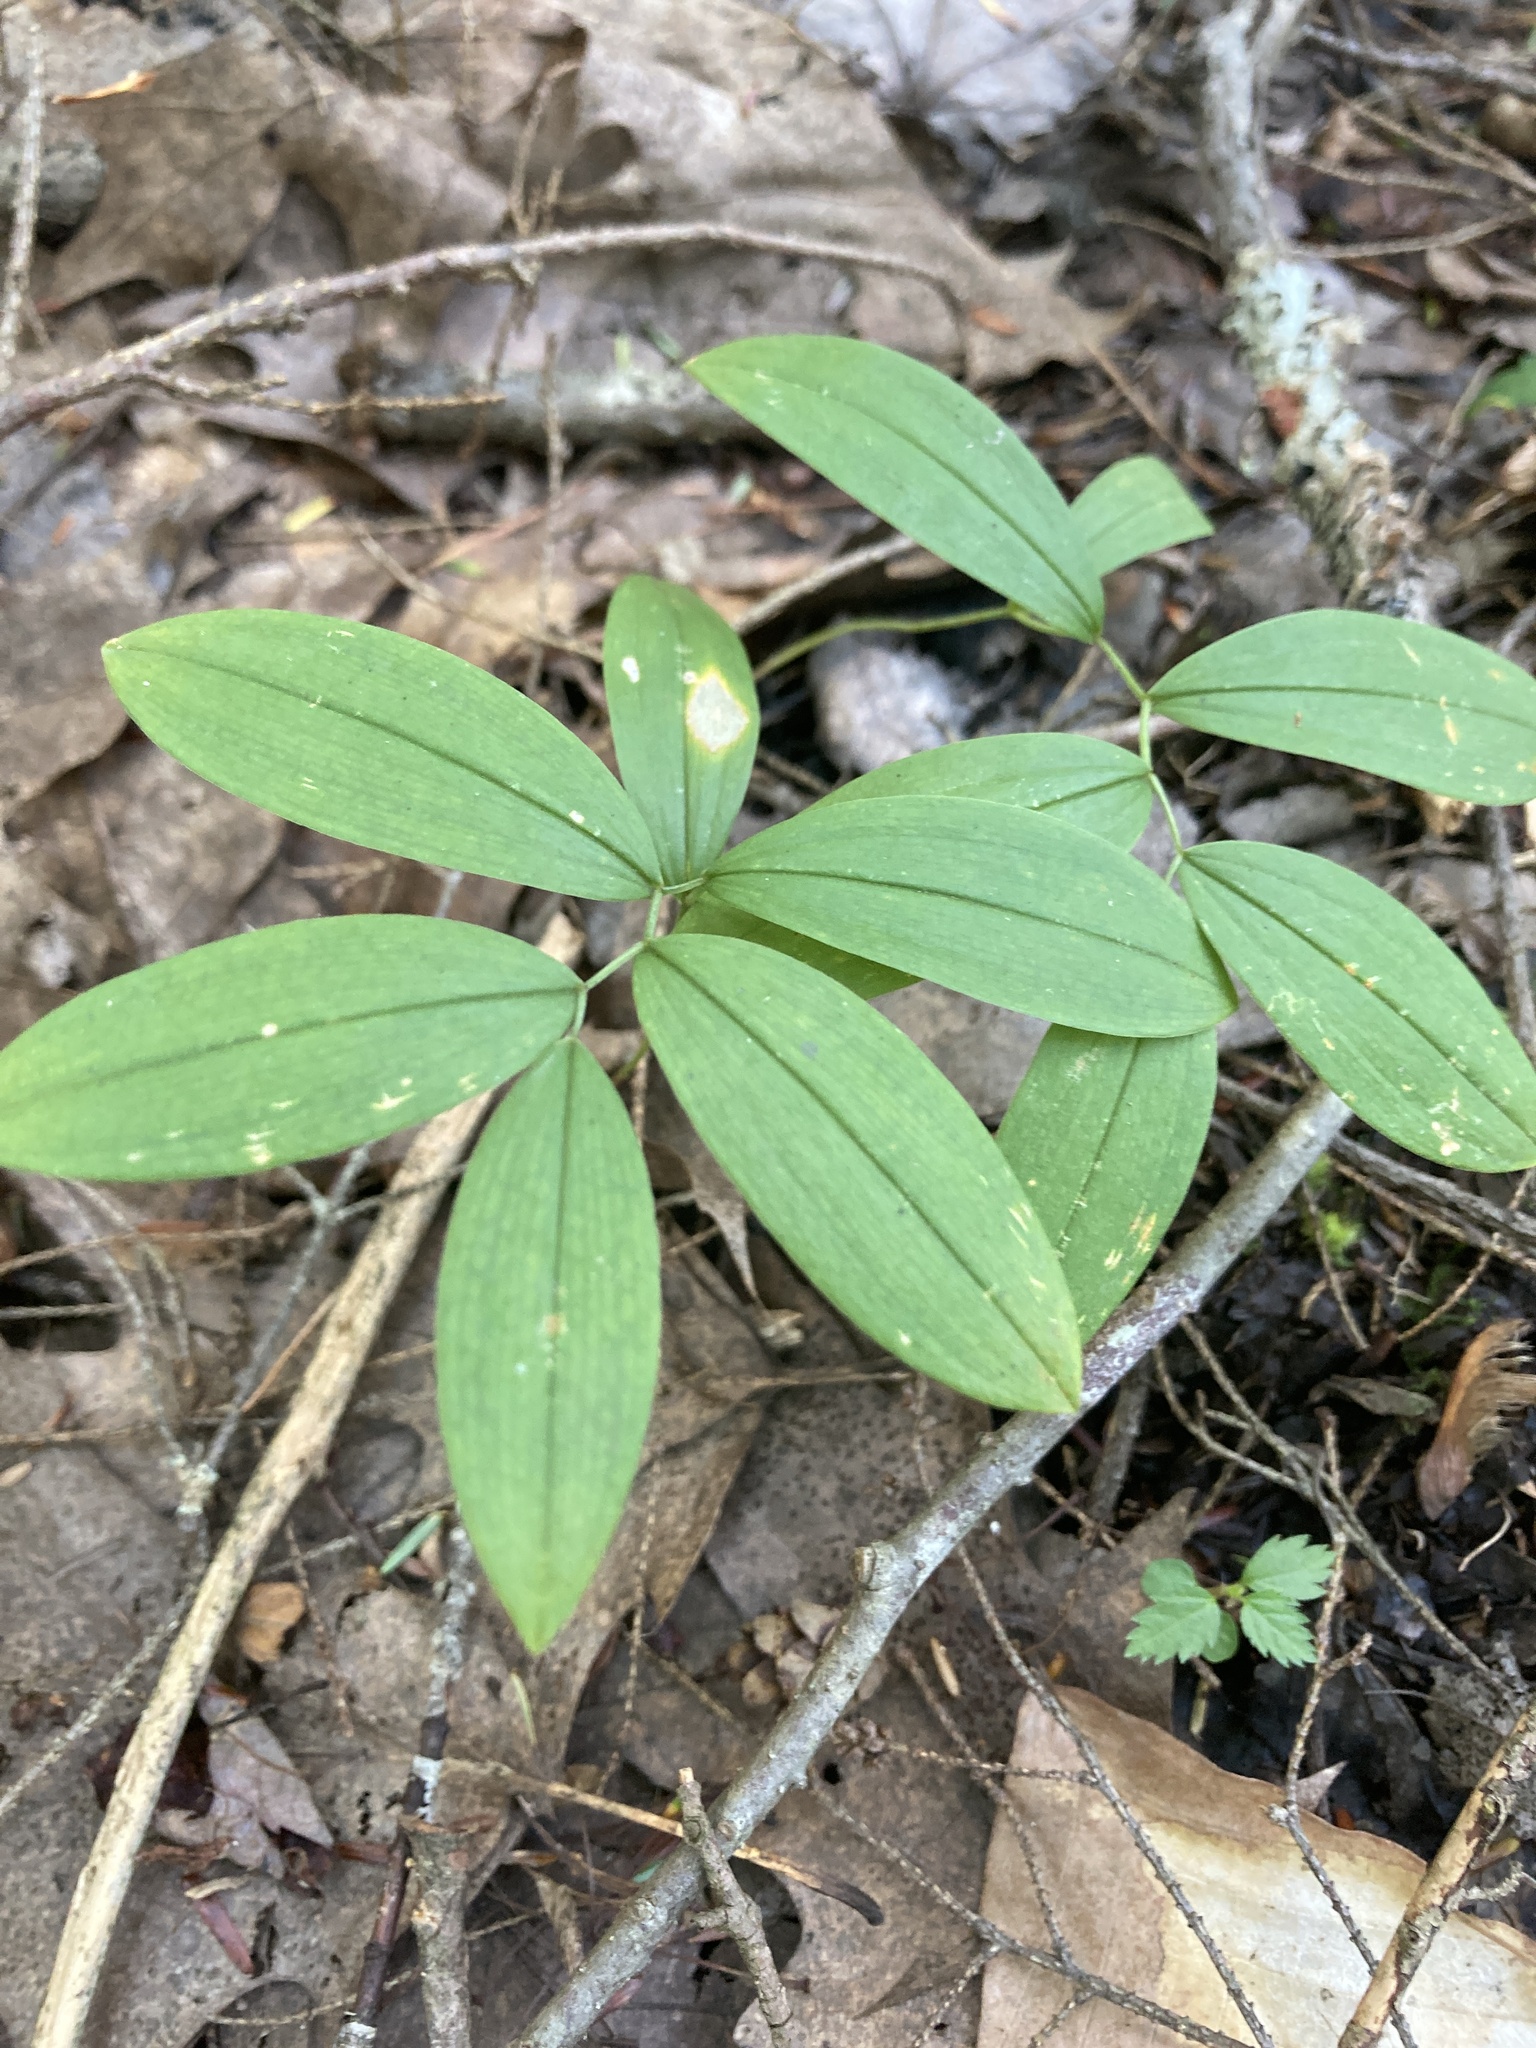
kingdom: Plantae
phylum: Tracheophyta
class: Liliopsida
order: Liliales
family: Colchicaceae
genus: Uvularia
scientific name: Uvularia sessilifolia
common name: Straw-lily
